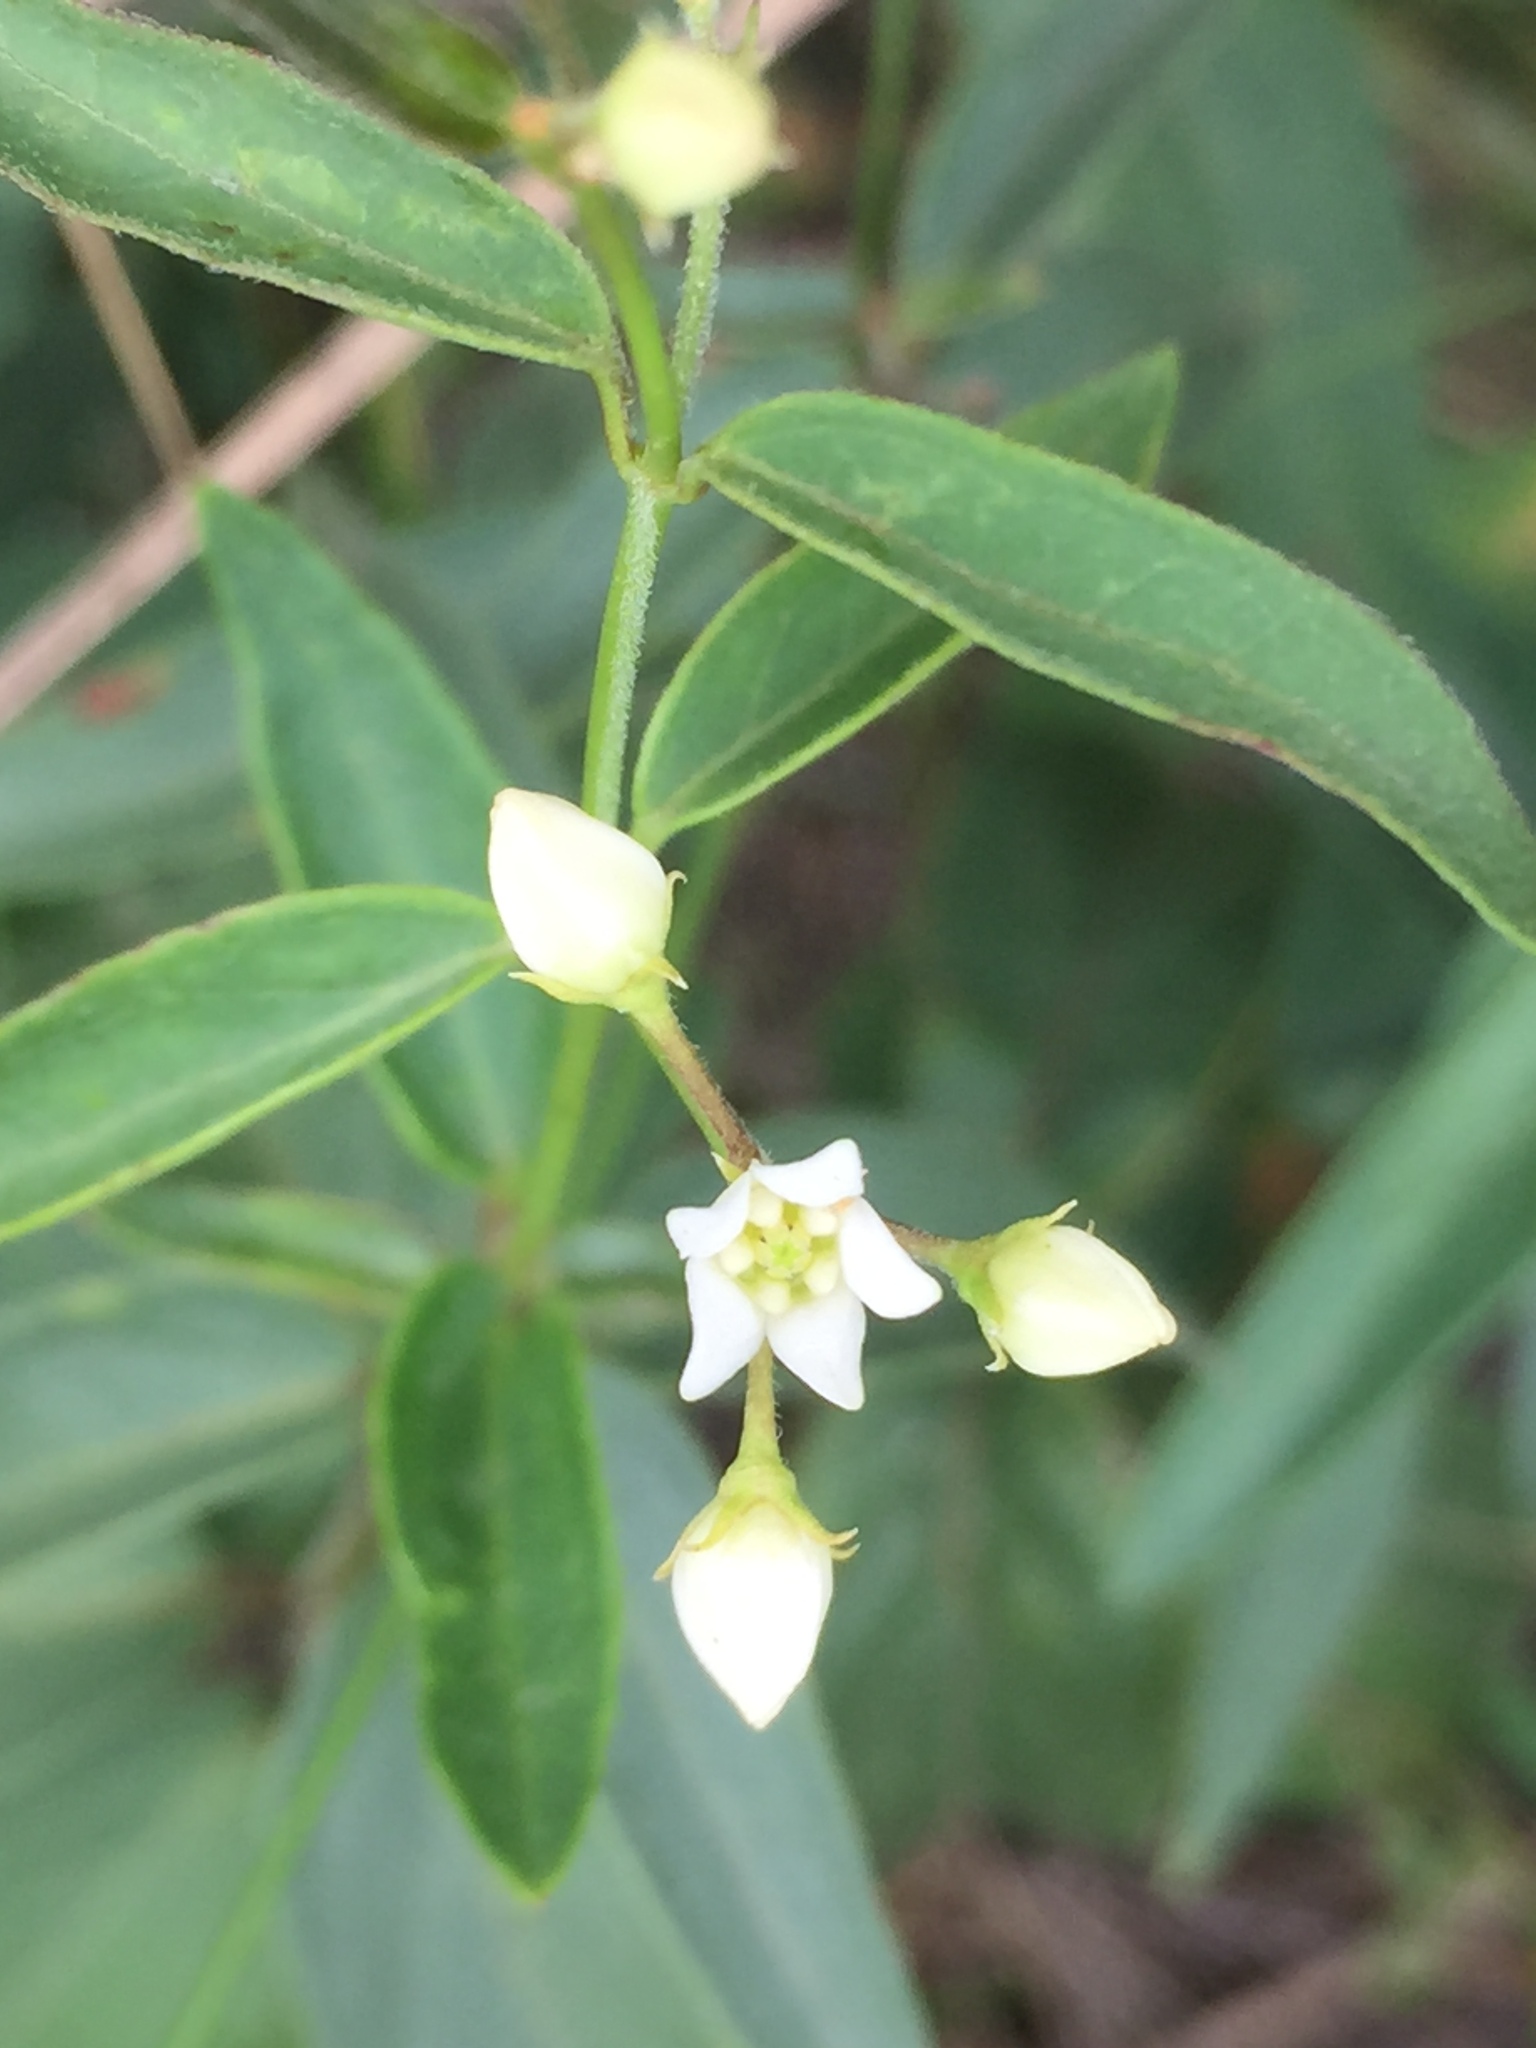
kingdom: Plantae
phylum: Tracheophyta
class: Magnoliopsida
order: Gentianales
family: Apocynaceae
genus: Vincetoxicum
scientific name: Vincetoxicum hirundinaria
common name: White swallowwort
